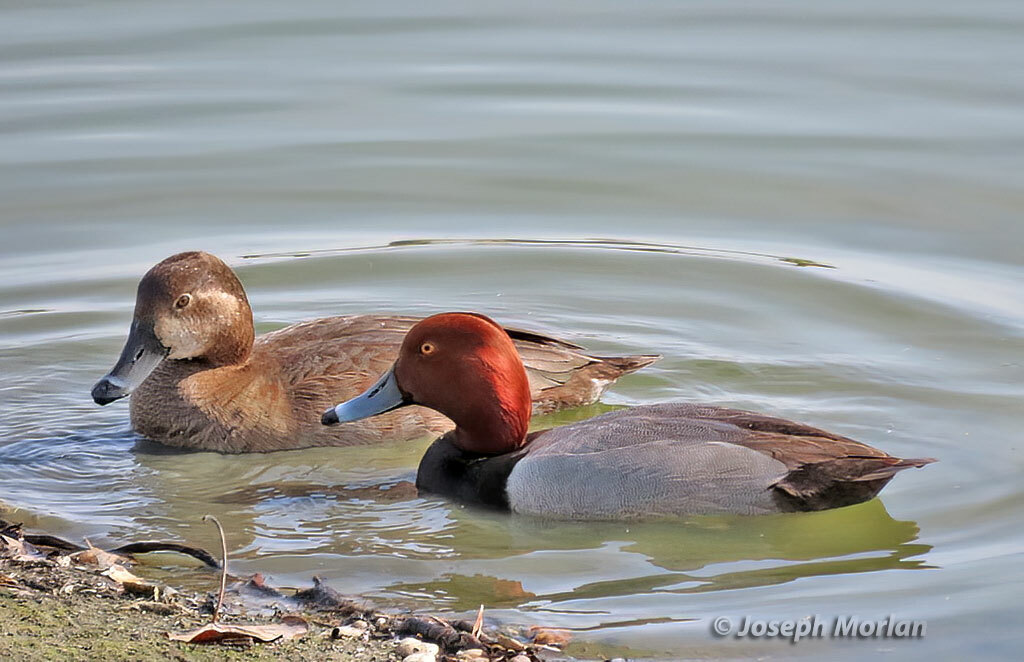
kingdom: Animalia
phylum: Chordata
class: Aves
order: Anseriformes
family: Anatidae
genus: Aythya
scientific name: Aythya americana
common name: Redhead
